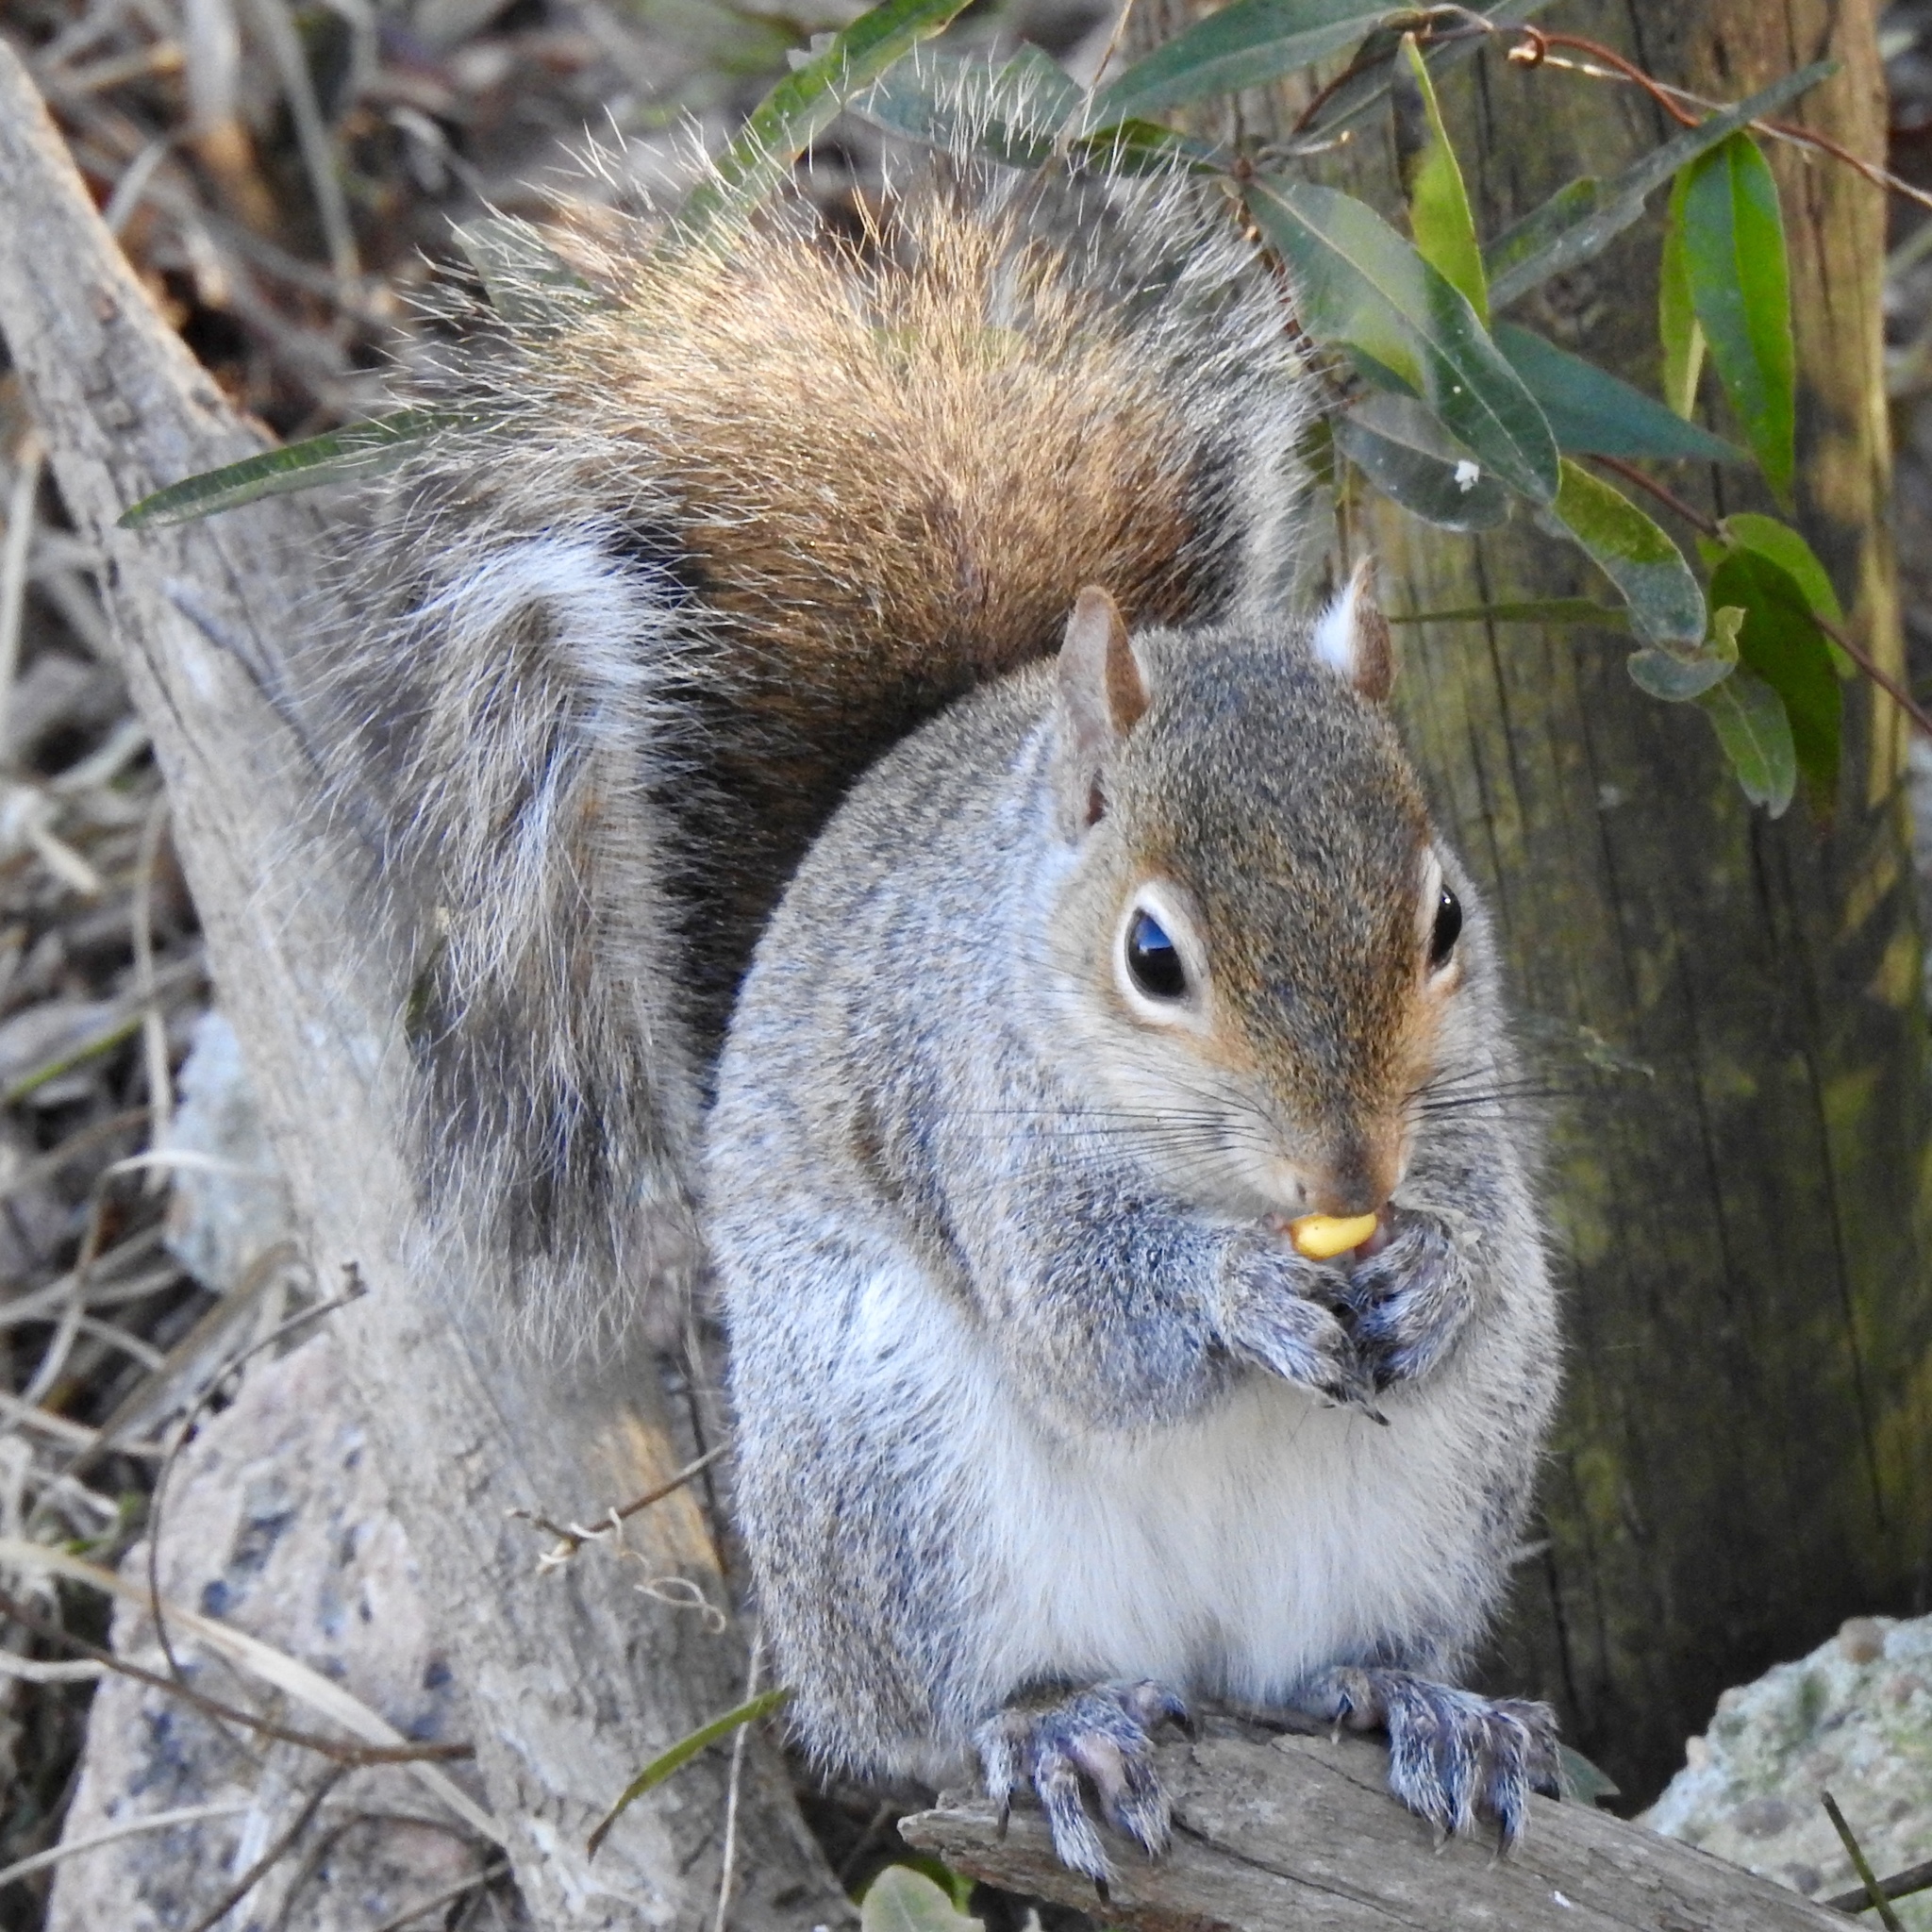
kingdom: Animalia
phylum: Chordata
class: Mammalia
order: Rodentia
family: Sciuridae
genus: Sciurus
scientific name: Sciurus carolinensis
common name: Eastern gray squirrel
